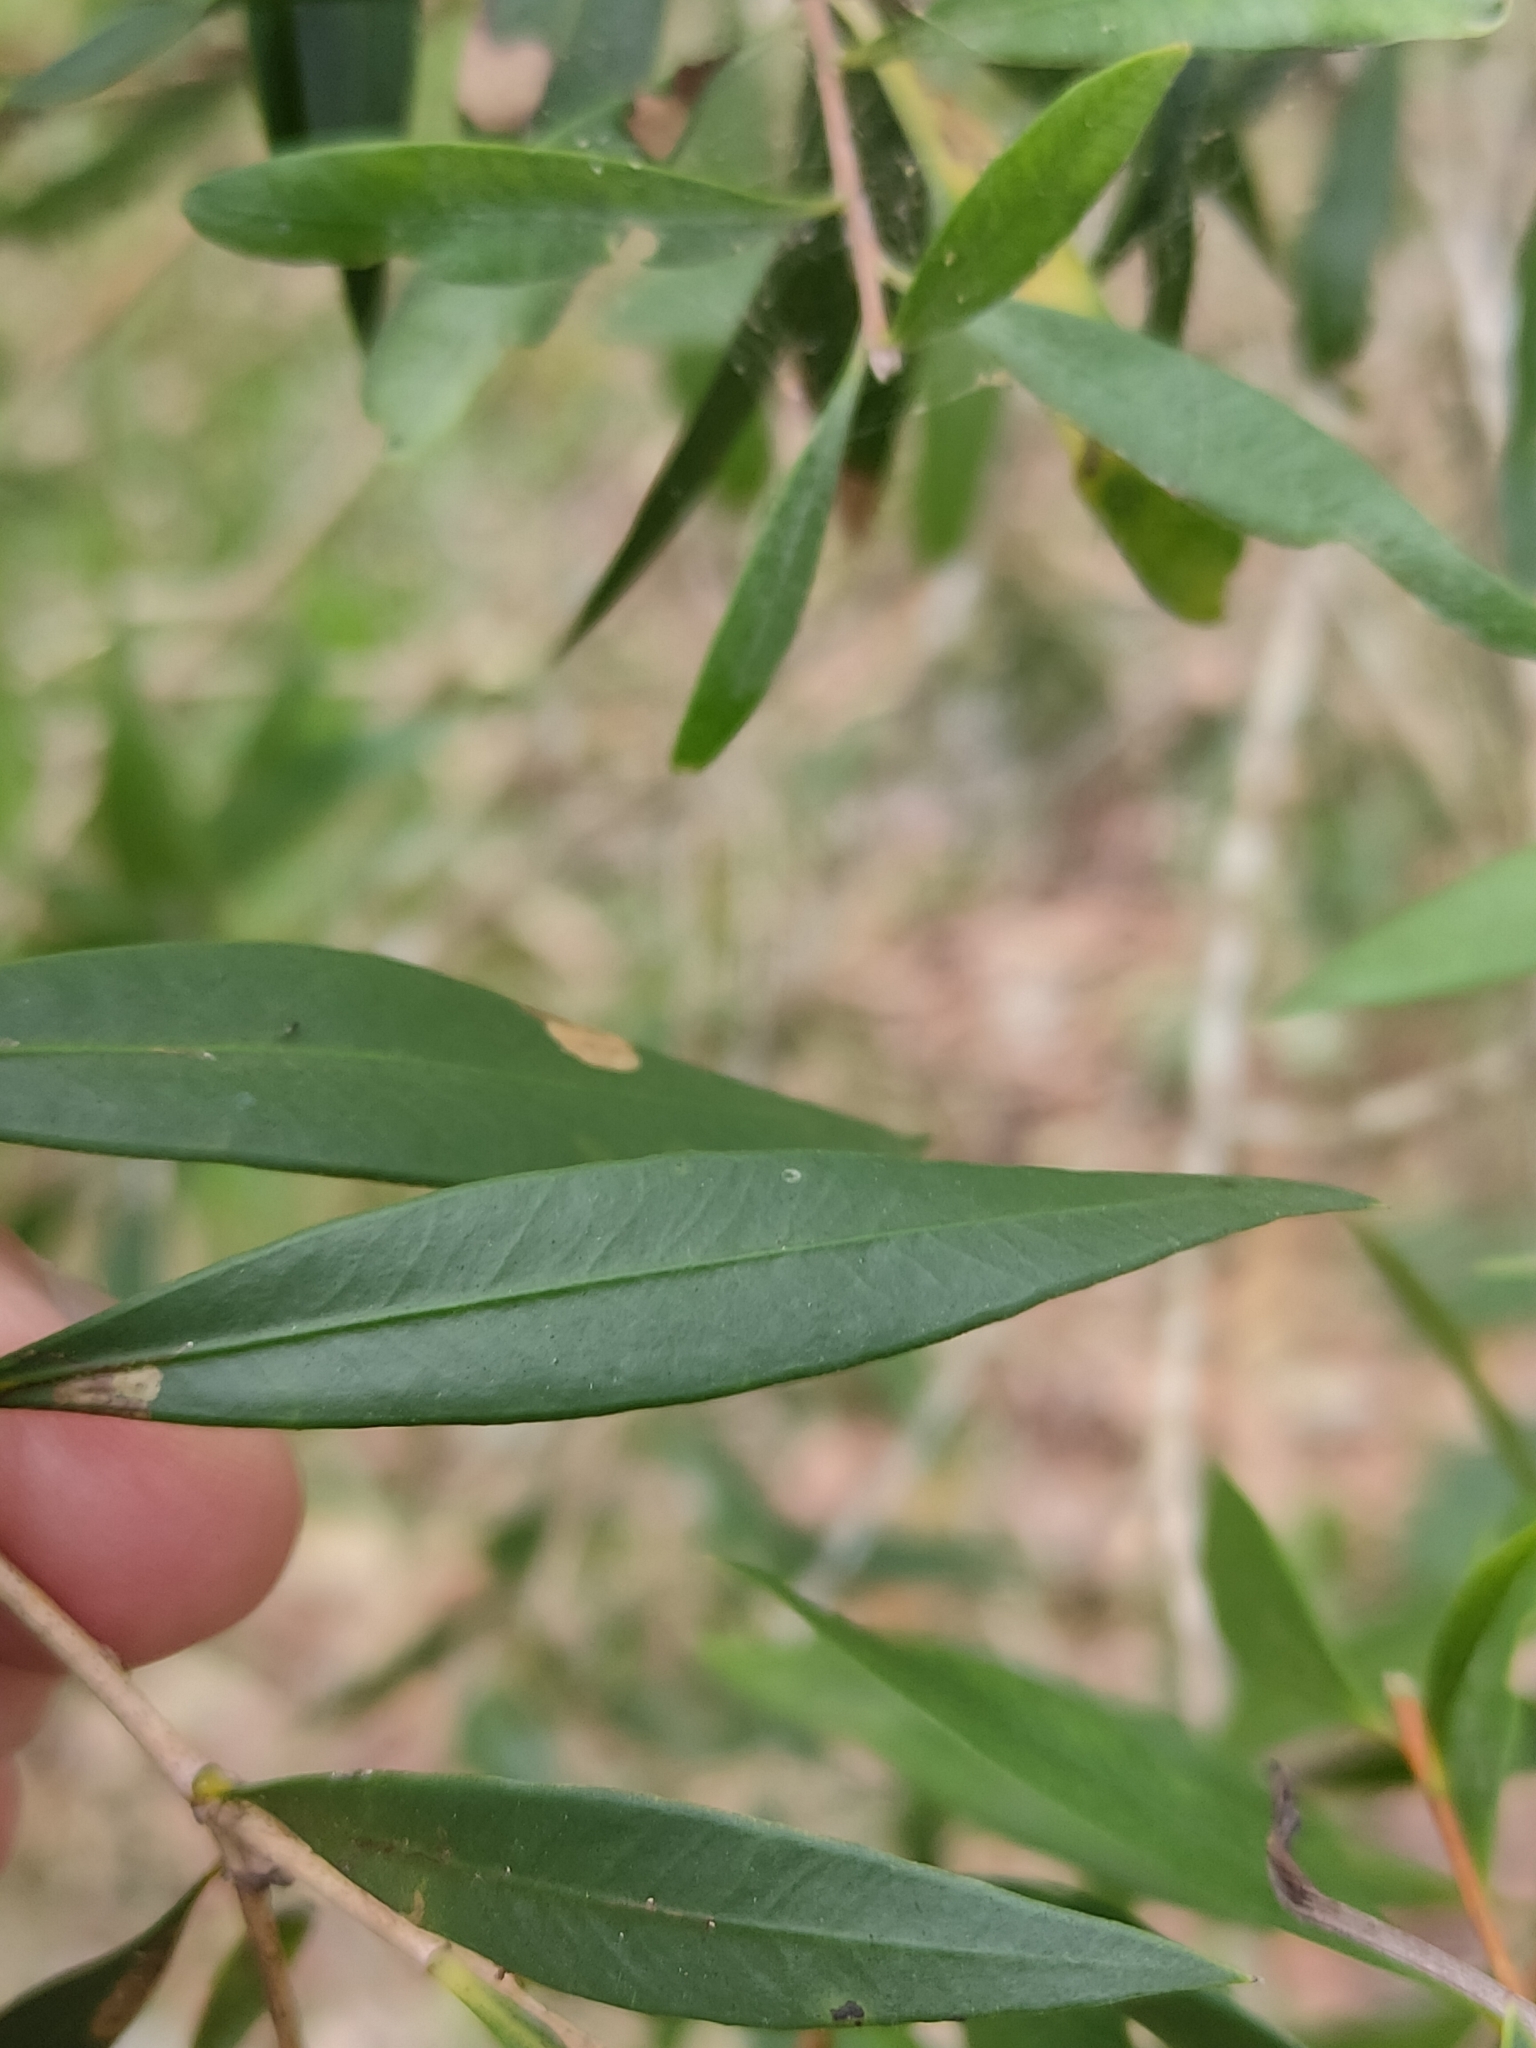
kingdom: Plantae
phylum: Tracheophyta
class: Magnoliopsida
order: Myrtales
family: Myrtaceae
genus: Callistemon
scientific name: Callistemon salignus
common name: White bottlebrush
